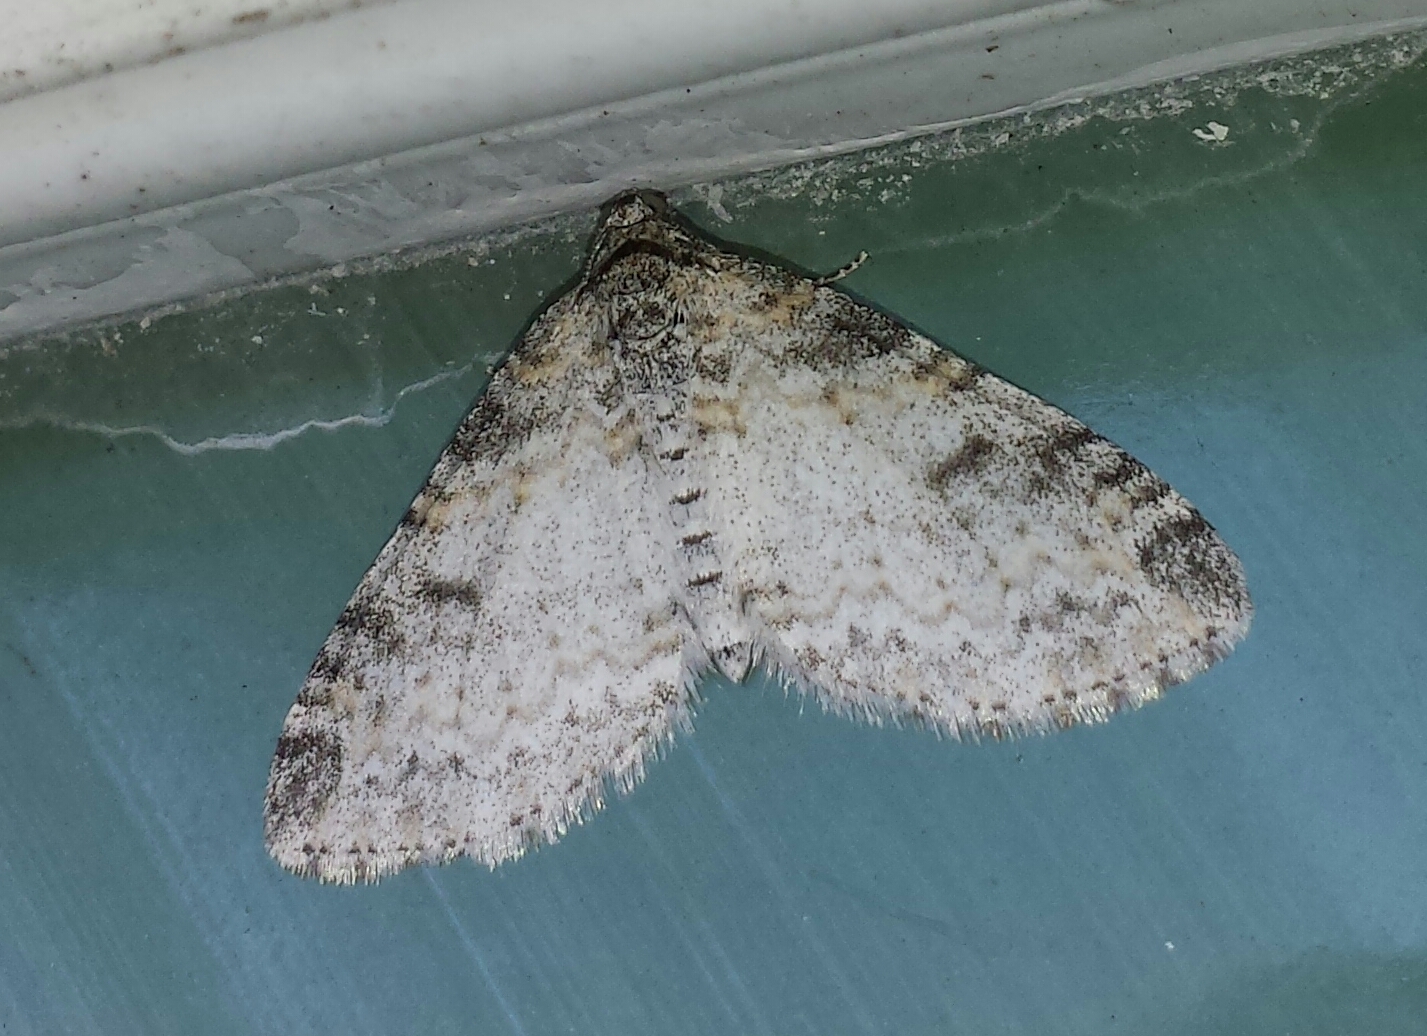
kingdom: Animalia
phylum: Arthropoda
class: Insecta
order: Lepidoptera
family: Geometridae
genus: Lobophora
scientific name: Lobophora nivigerata
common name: Powdered bigwing
